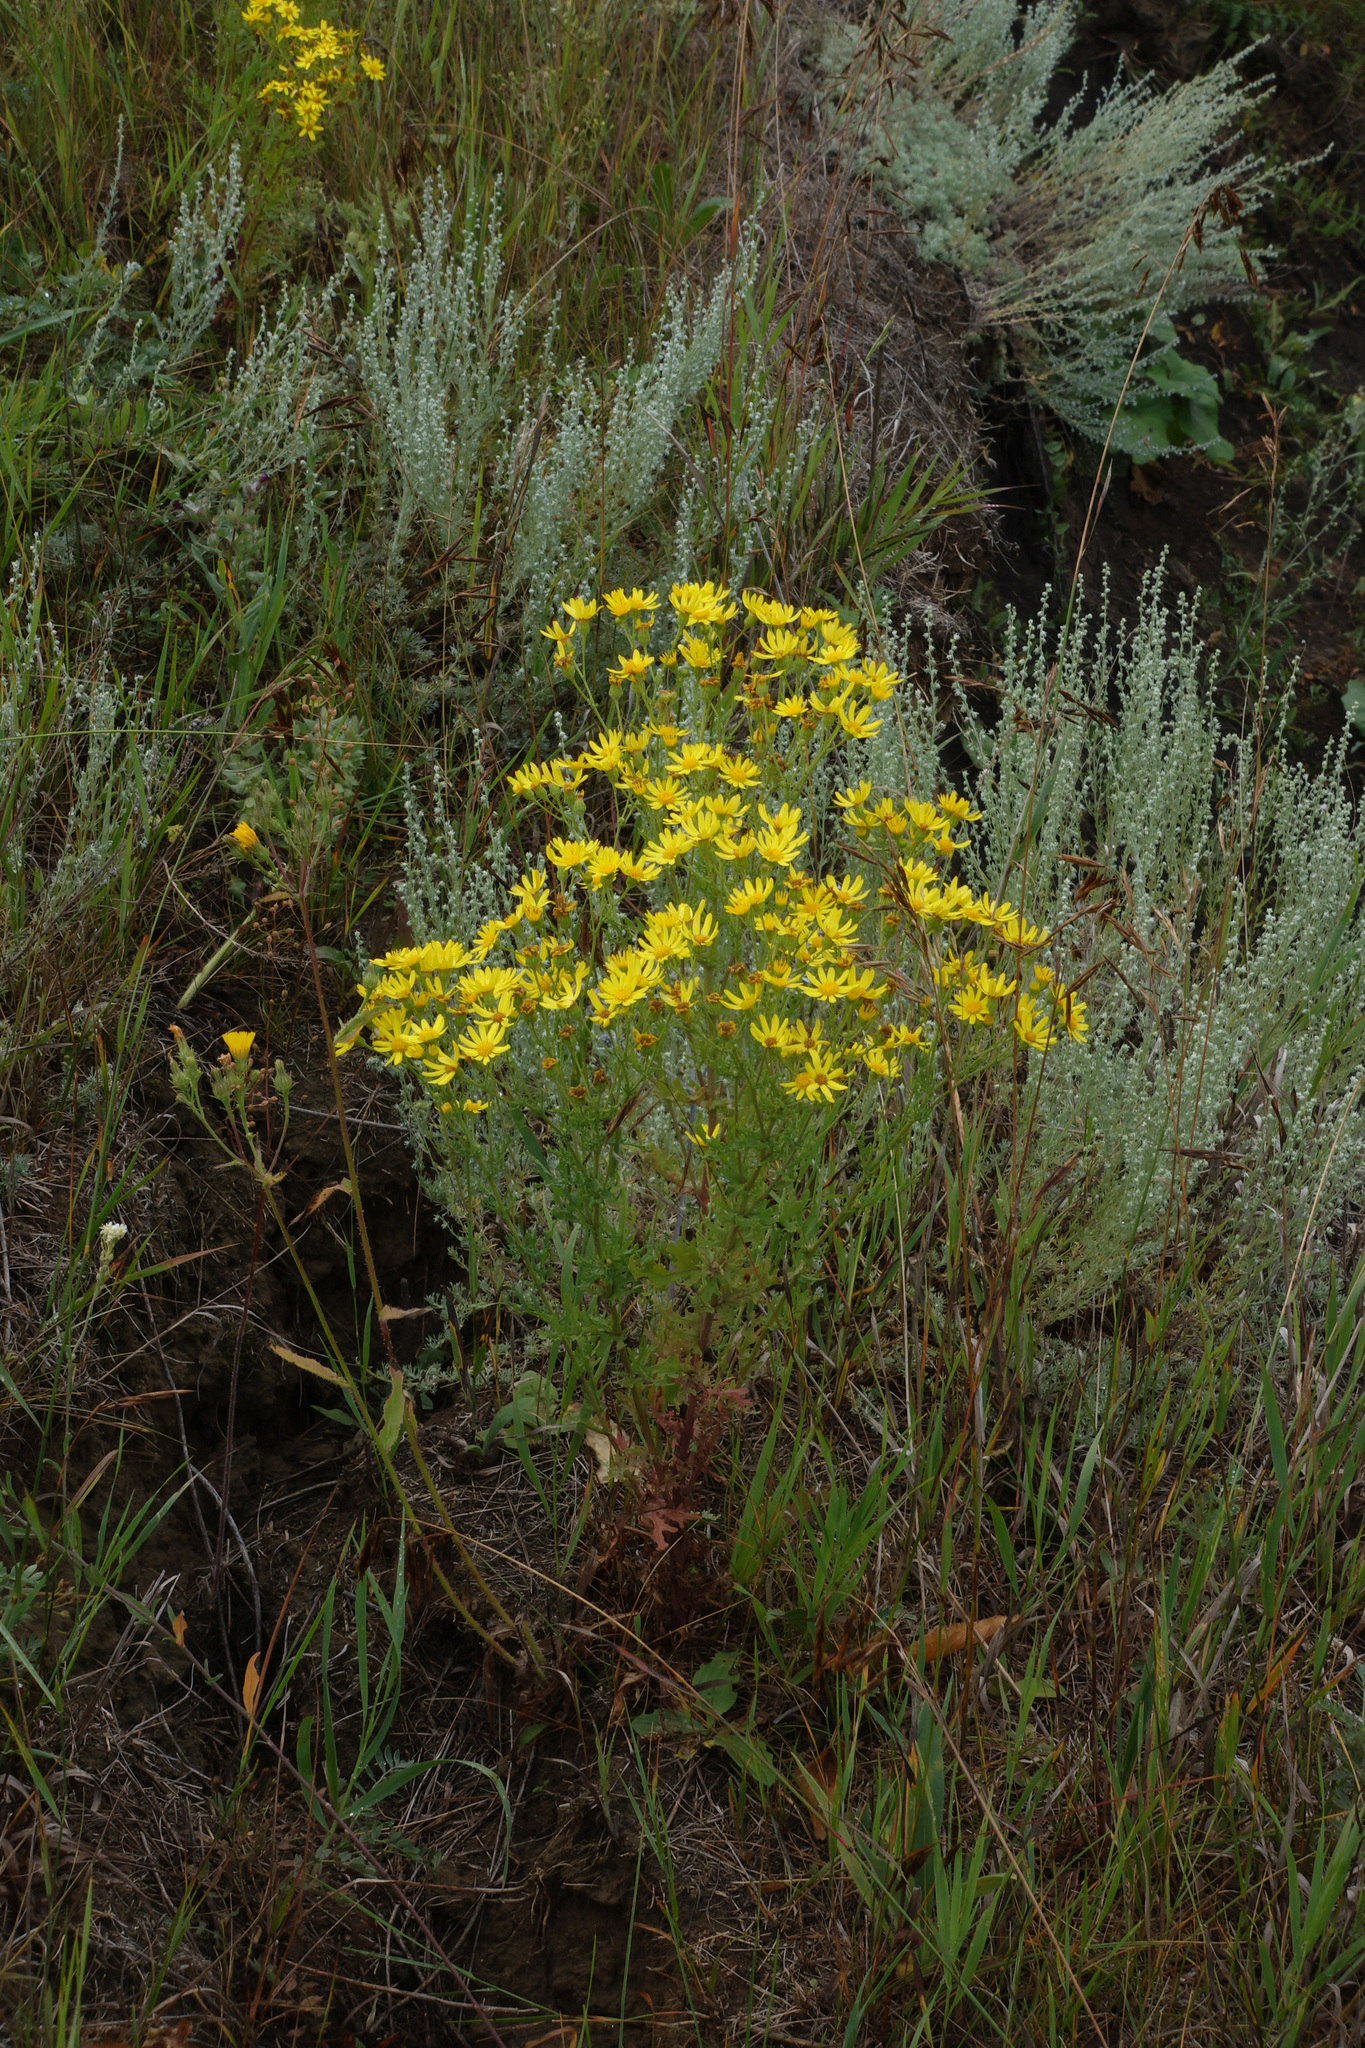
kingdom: Plantae
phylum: Tracheophyta
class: Magnoliopsida
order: Asterales
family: Asteraceae
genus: Jacobaea
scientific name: Jacobaea vulgaris
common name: Stinking willie
